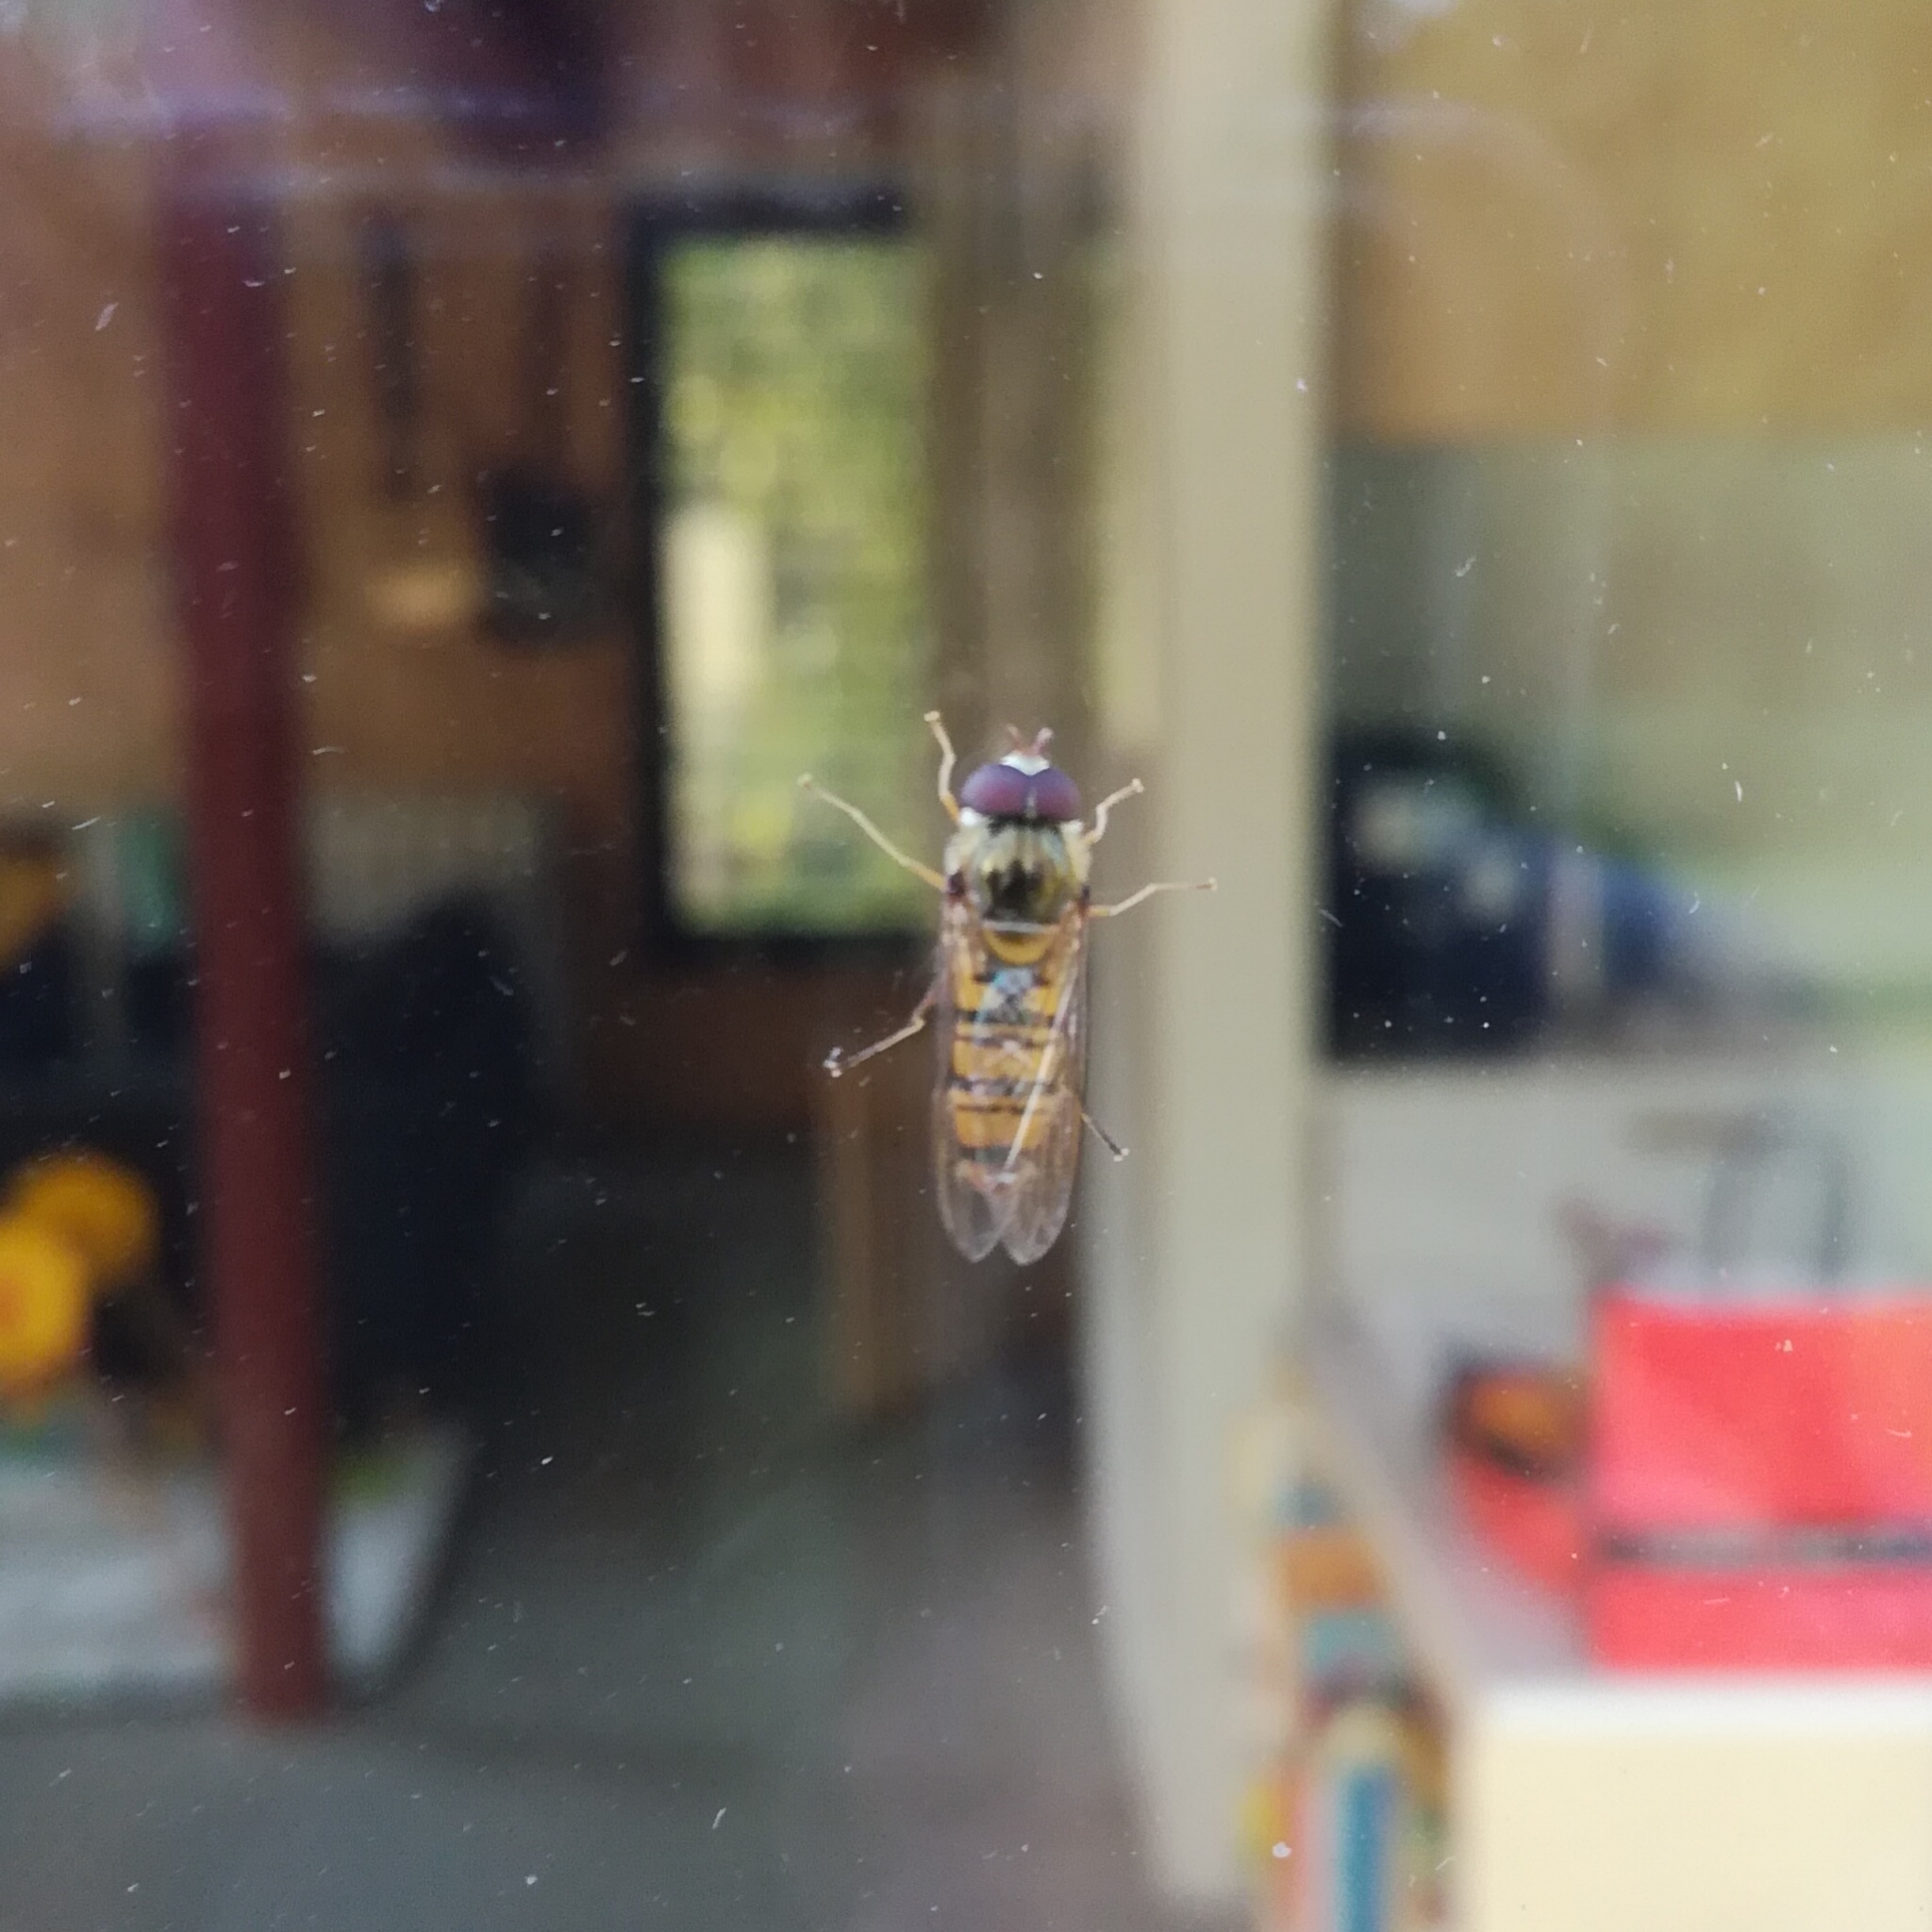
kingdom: Animalia
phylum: Arthropoda
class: Insecta
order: Diptera
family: Syrphidae
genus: Episyrphus
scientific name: Episyrphus balteatus
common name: Marmalade hoverfly
